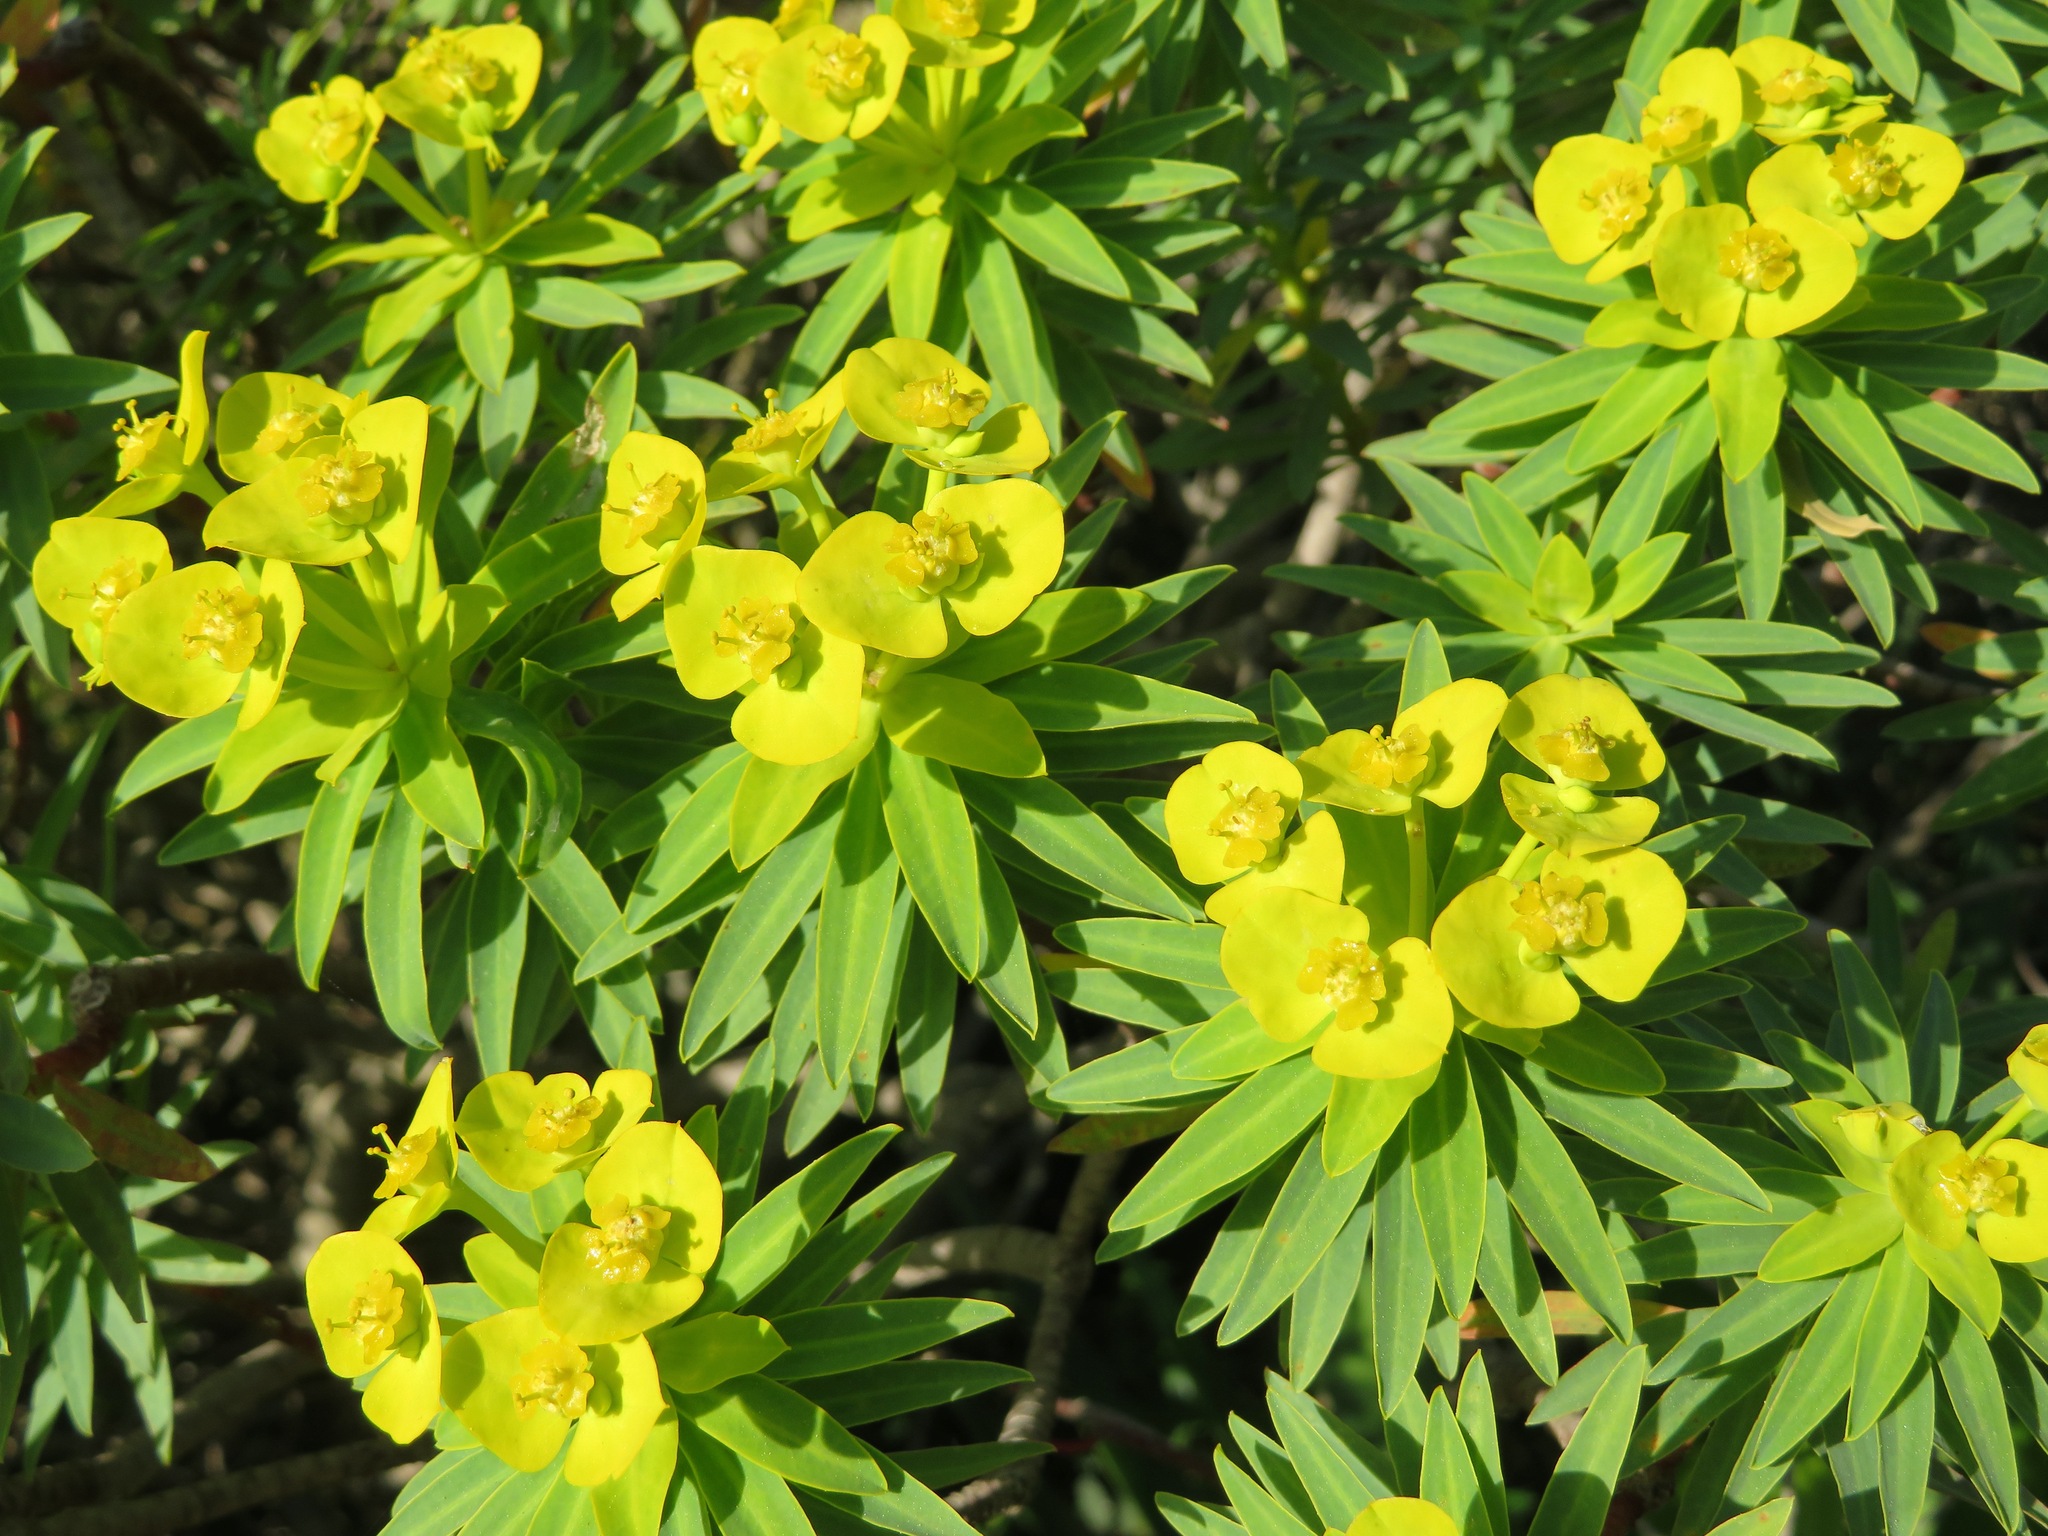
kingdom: Plantae
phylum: Tracheophyta
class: Magnoliopsida
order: Malpighiales
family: Euphorbiaceae
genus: Euphorbia
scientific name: Euphorbia dendroides
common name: Tree spurge
